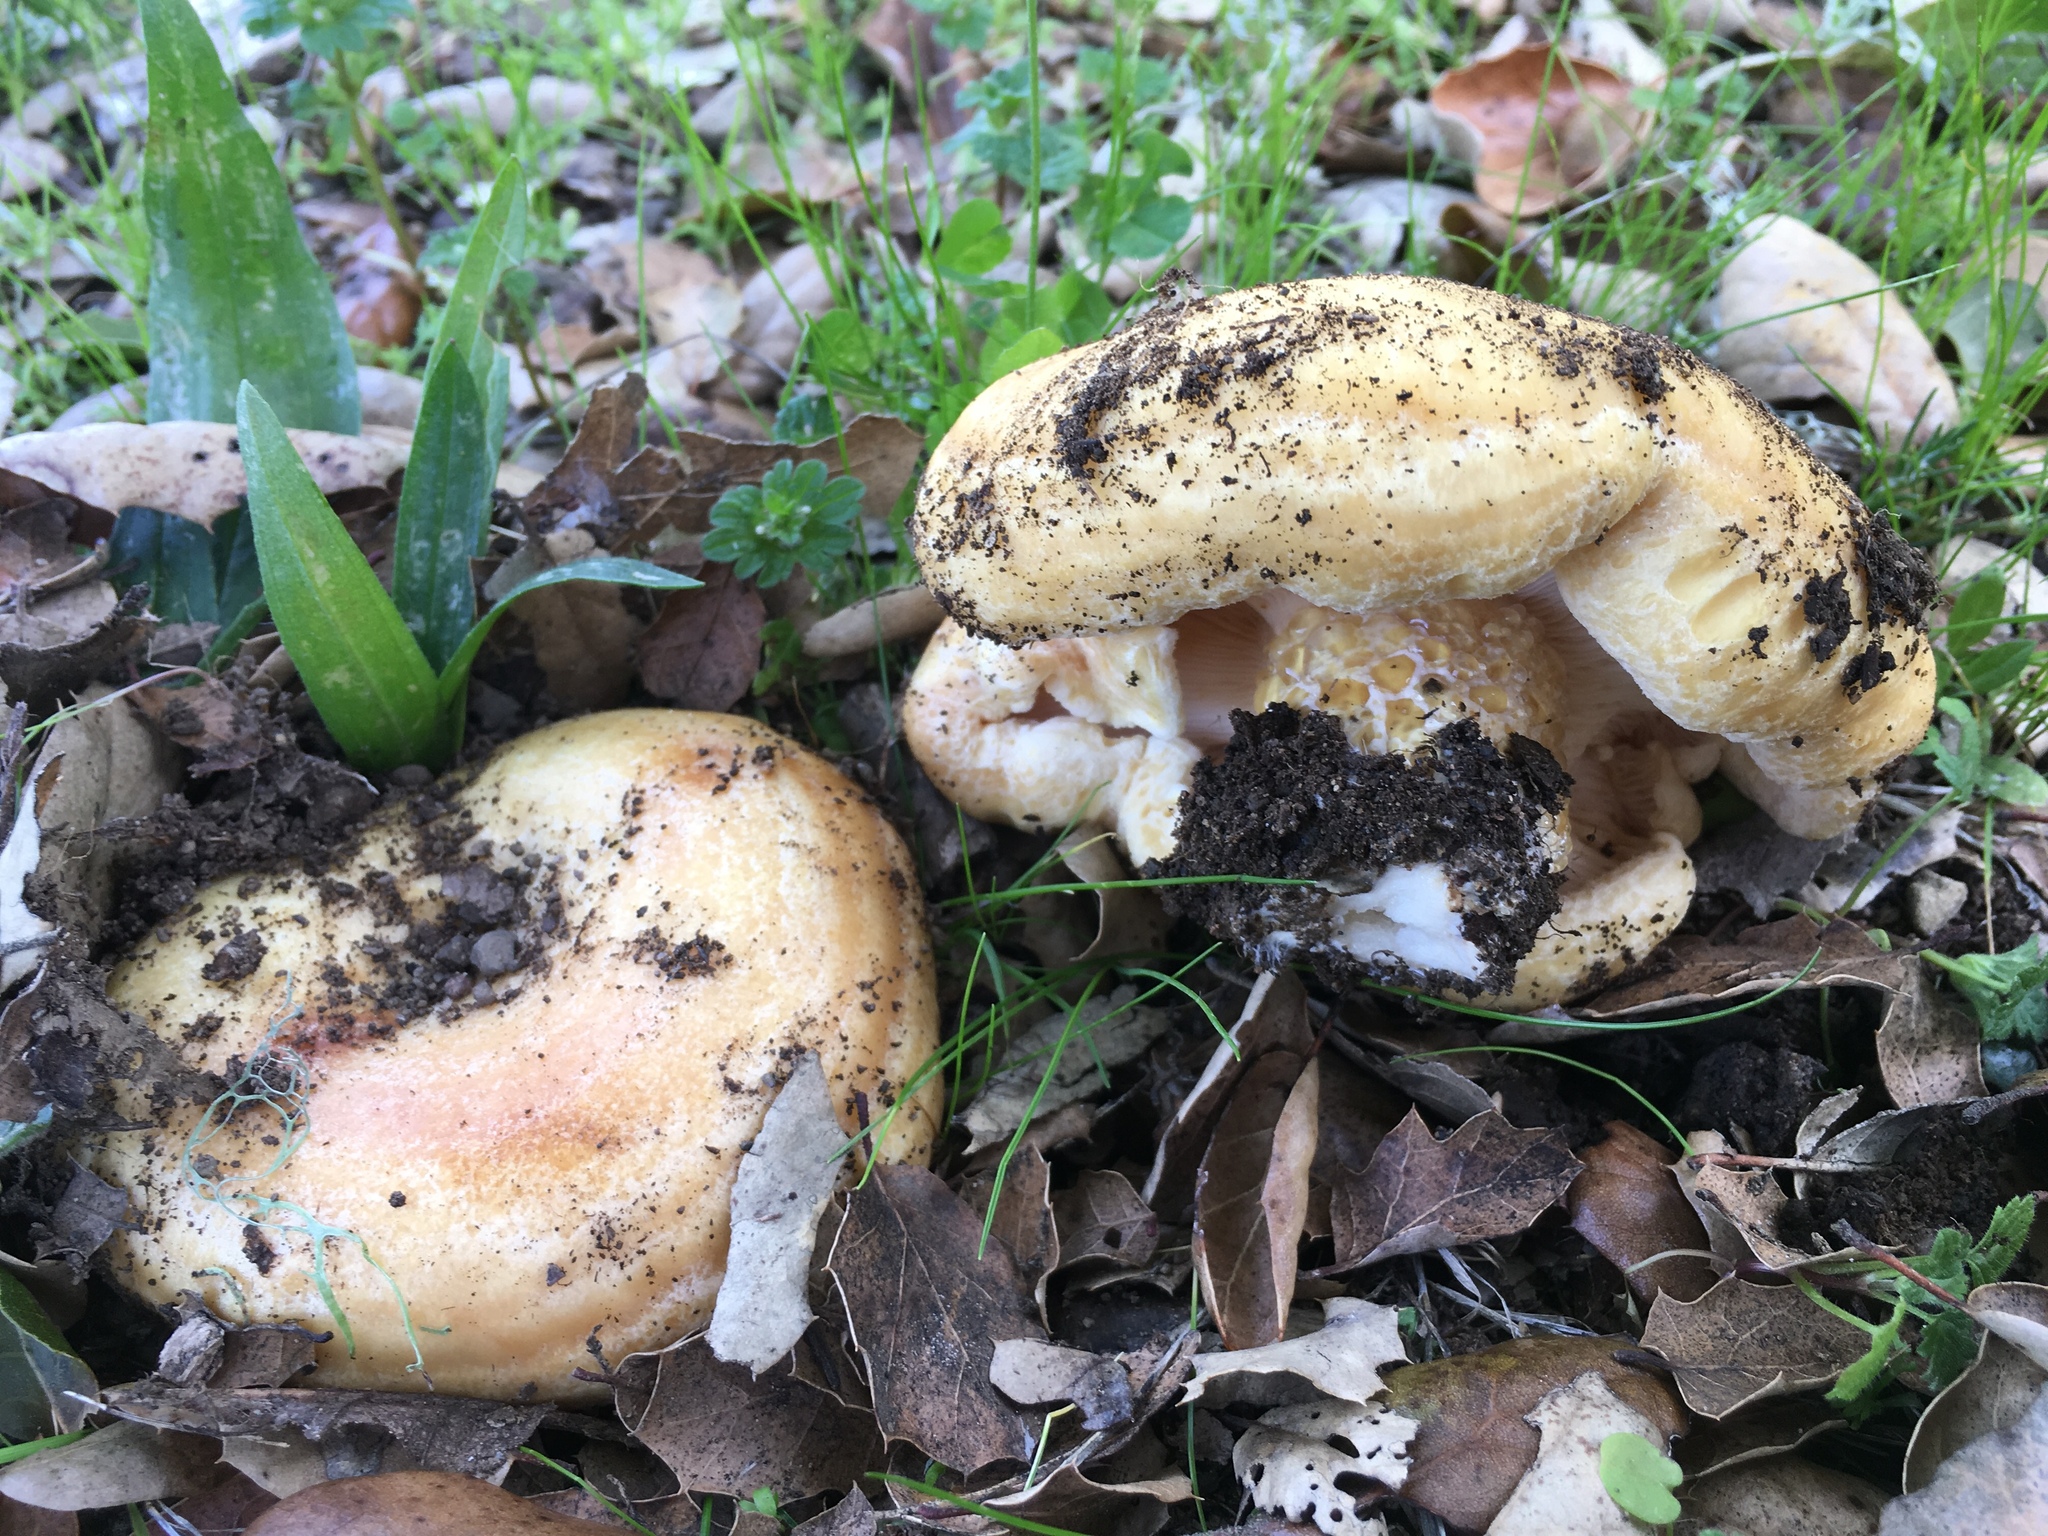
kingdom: Fungi
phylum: Basidiomycota
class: Agaricomycetes
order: Russulales
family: Russulaceae
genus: Lactarius
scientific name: Lactarius alnicola
